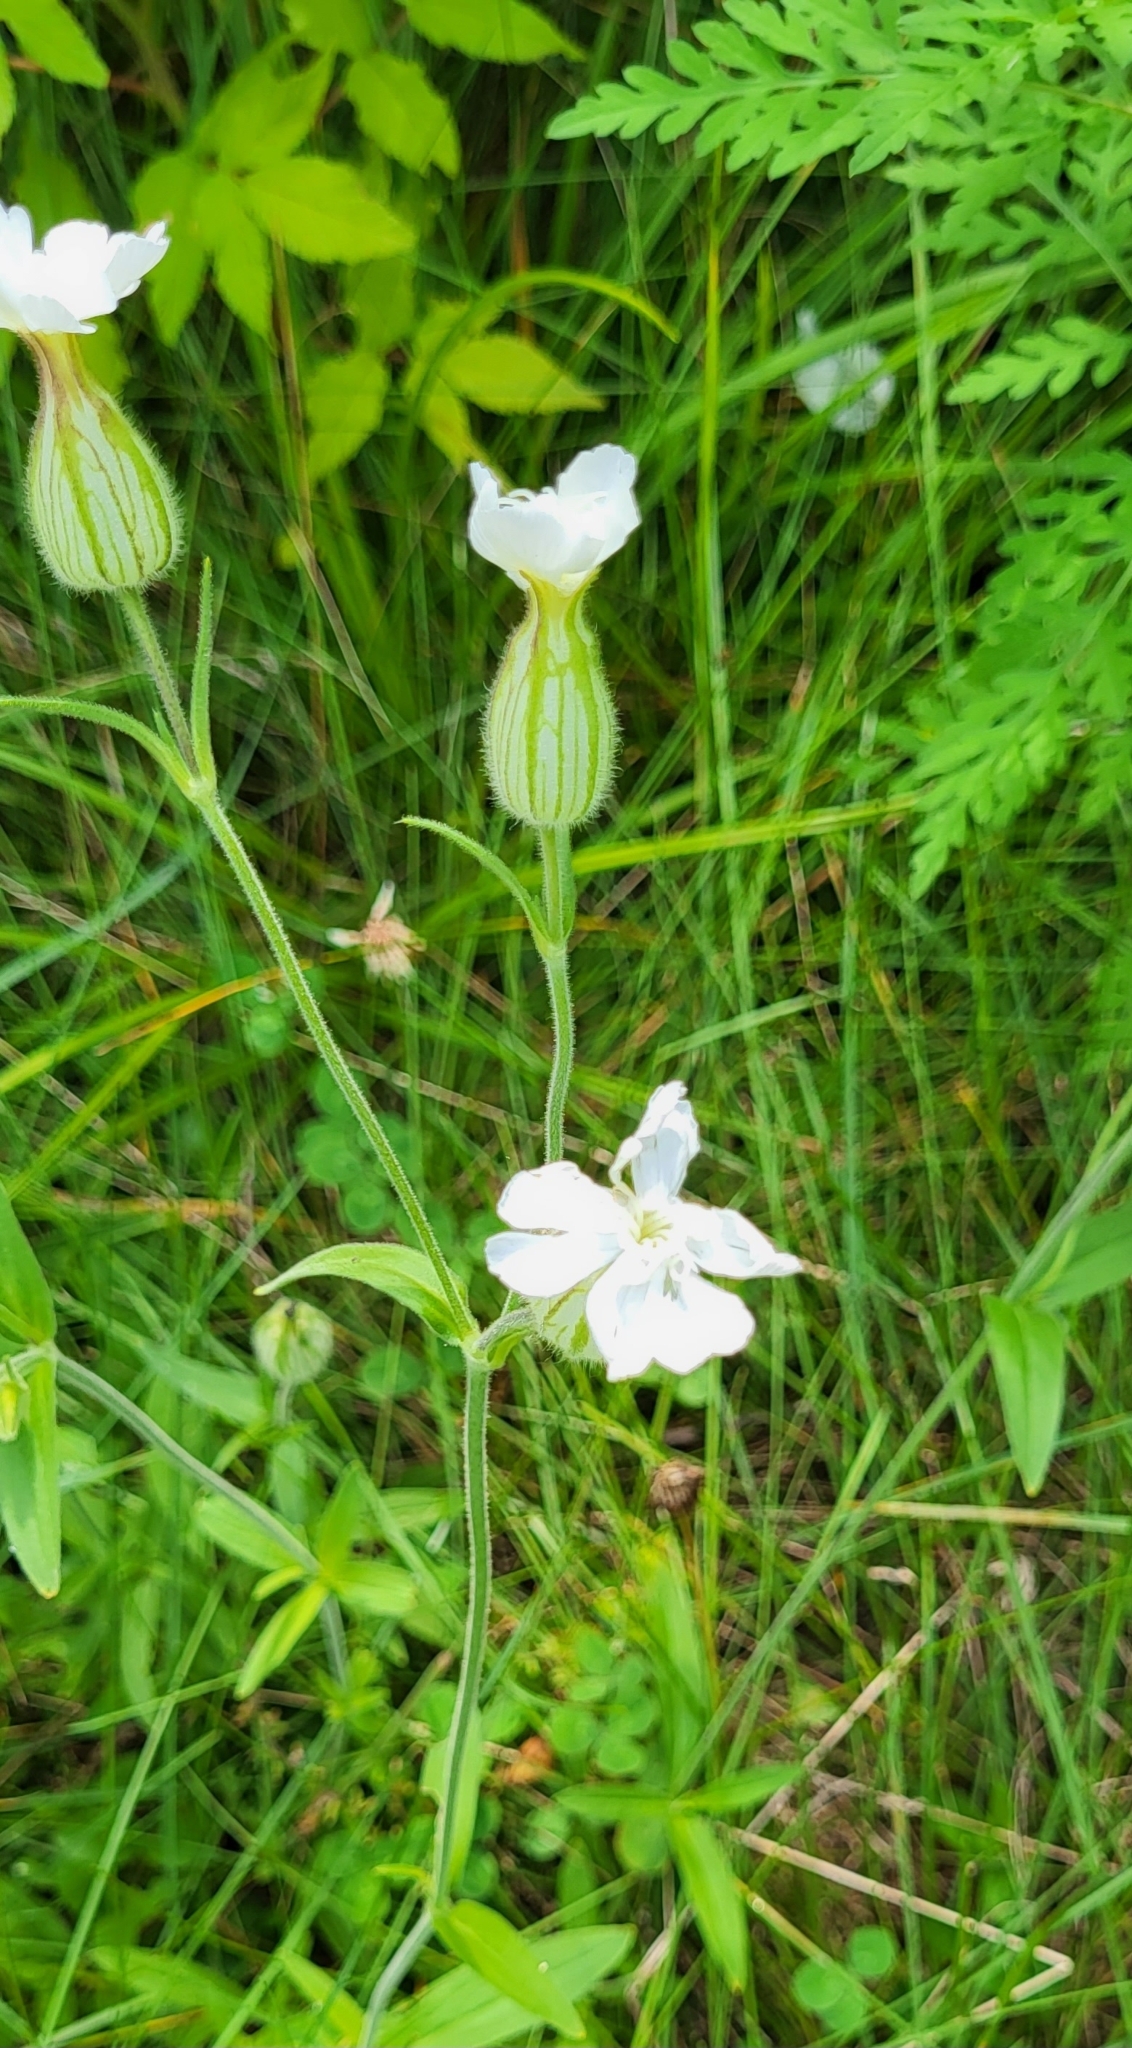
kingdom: Plantae
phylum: Tracheophyta
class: Magnoliopsida
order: Caryophyllales
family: Caryophyllaceae
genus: Silene
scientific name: Silene latifolia
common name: White campion
